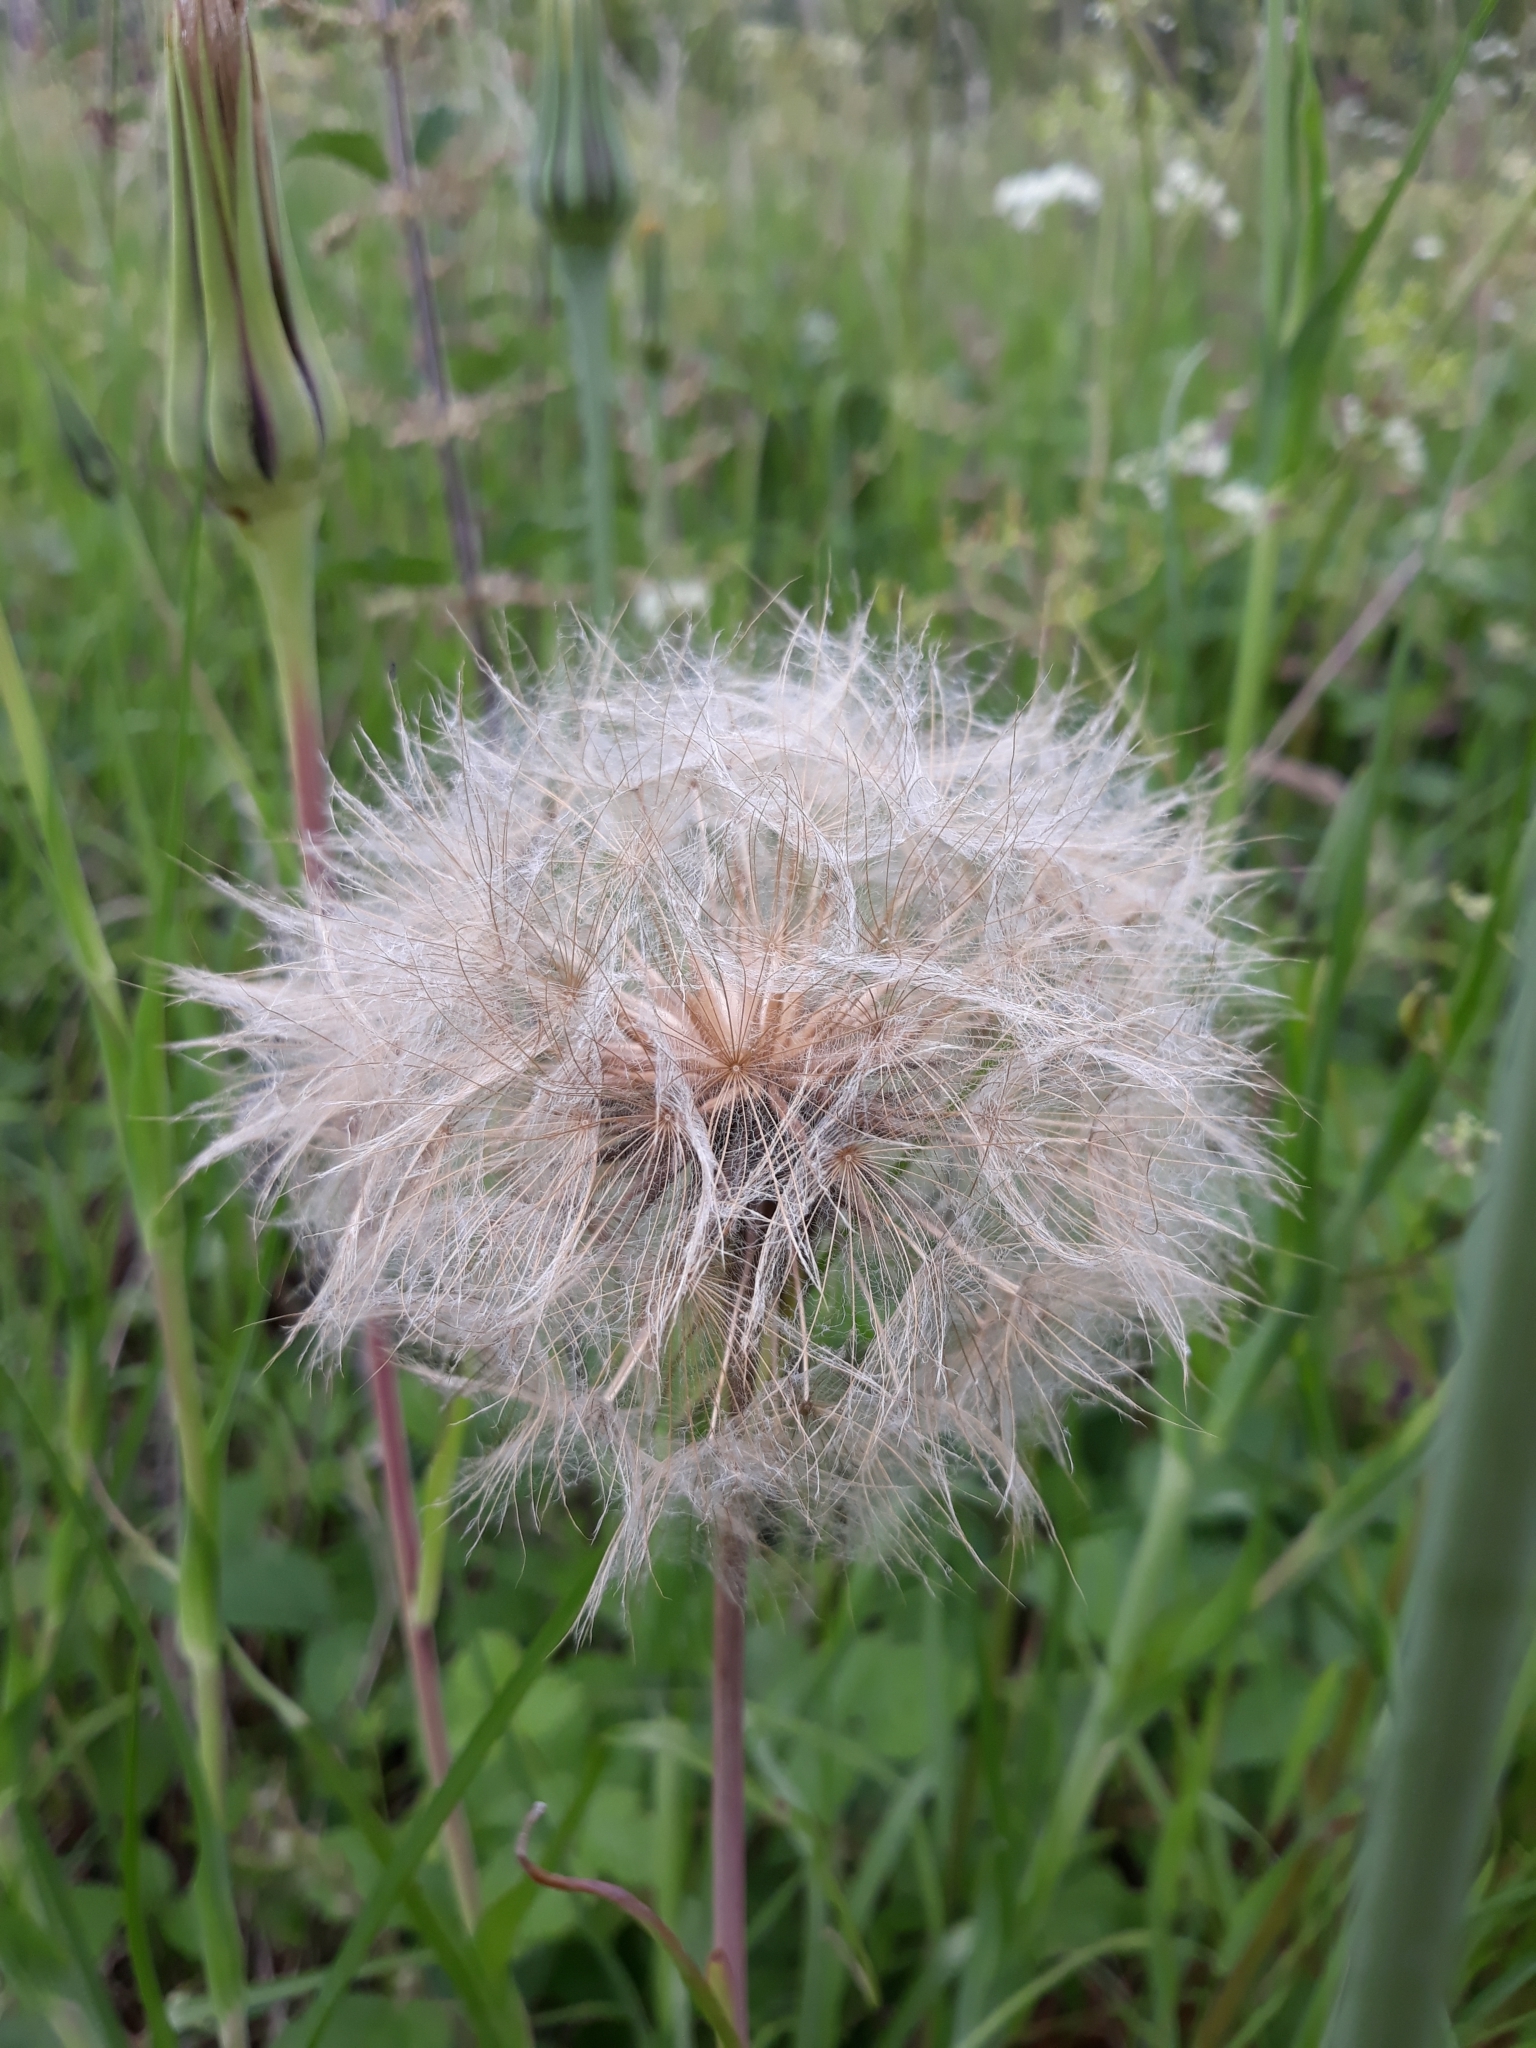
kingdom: Plantae
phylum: Tracheophyta
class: Magnoliopsida
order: Asterales
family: Asteraceae
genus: Tragopogon
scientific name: Tragopogon pratensis
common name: Goat's-beard
